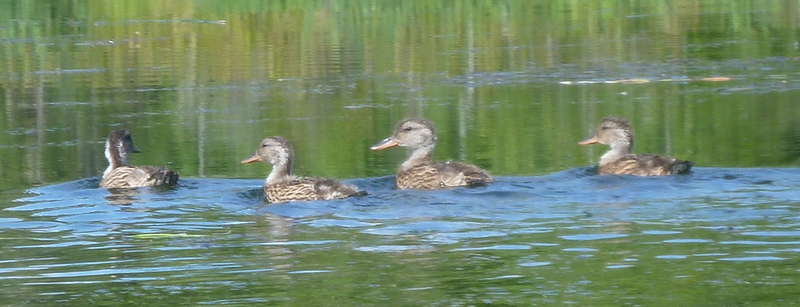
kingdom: Animalia
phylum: Chordata
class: Aves
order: Anseriformes
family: Anatidae
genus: Anas
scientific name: Anas platyrhynchos
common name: Mallard
